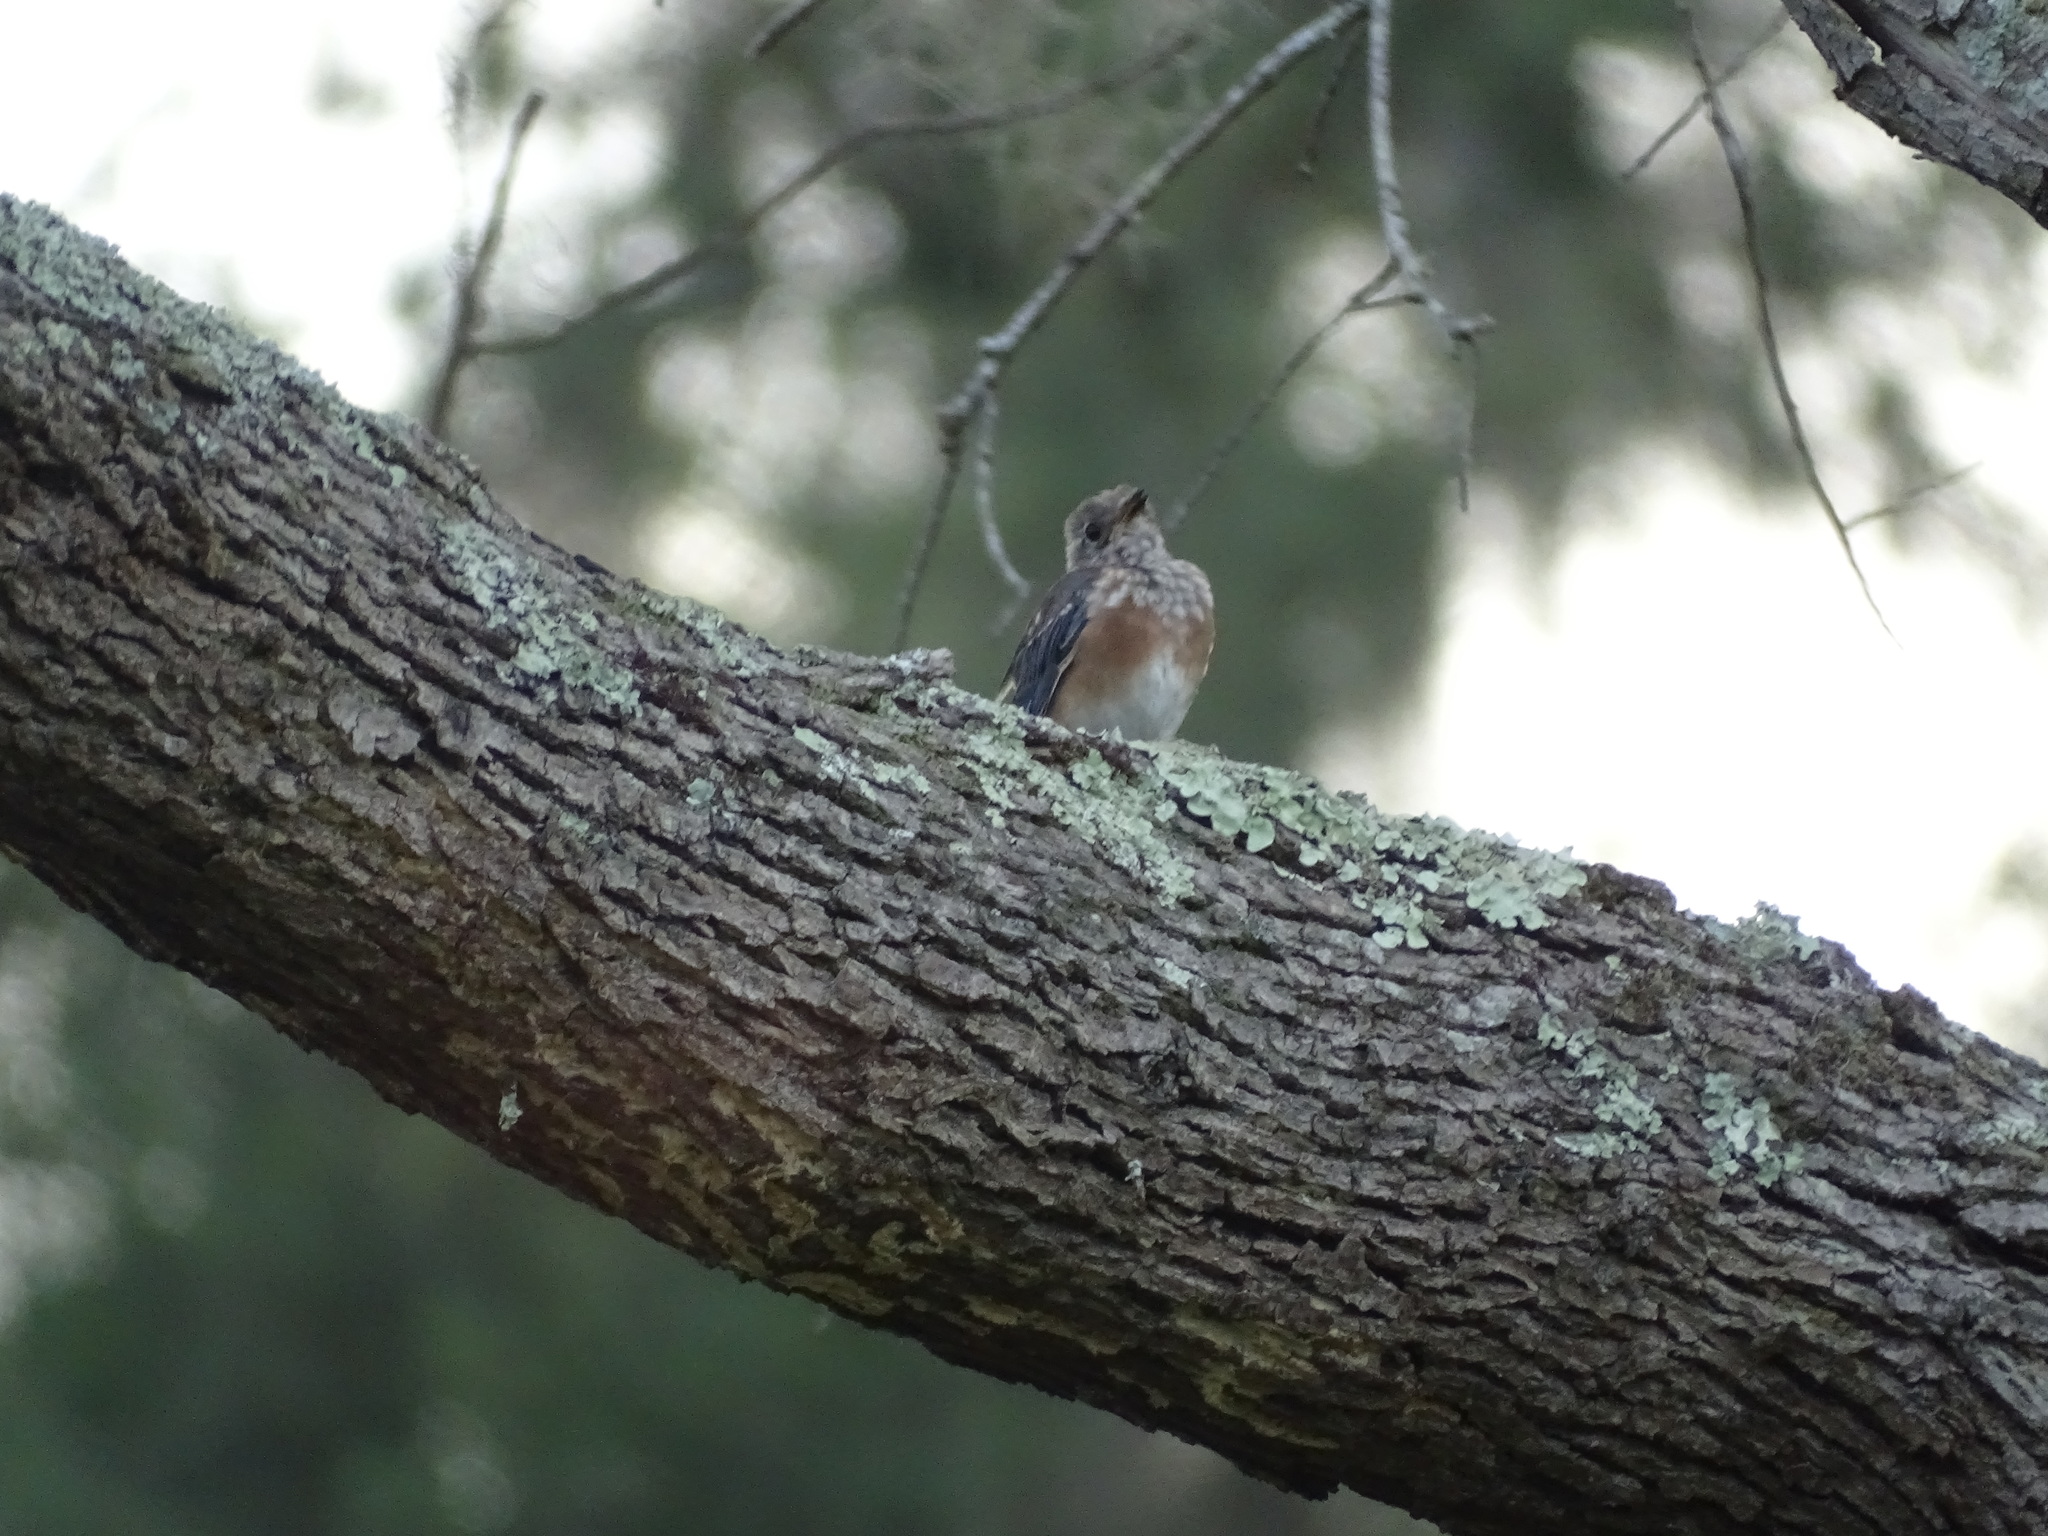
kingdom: Animalia
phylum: Chordata
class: Aves
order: Passeriformes
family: Turdidae
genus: Sialia
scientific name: Sialia sialis
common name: Eastern bluebird
